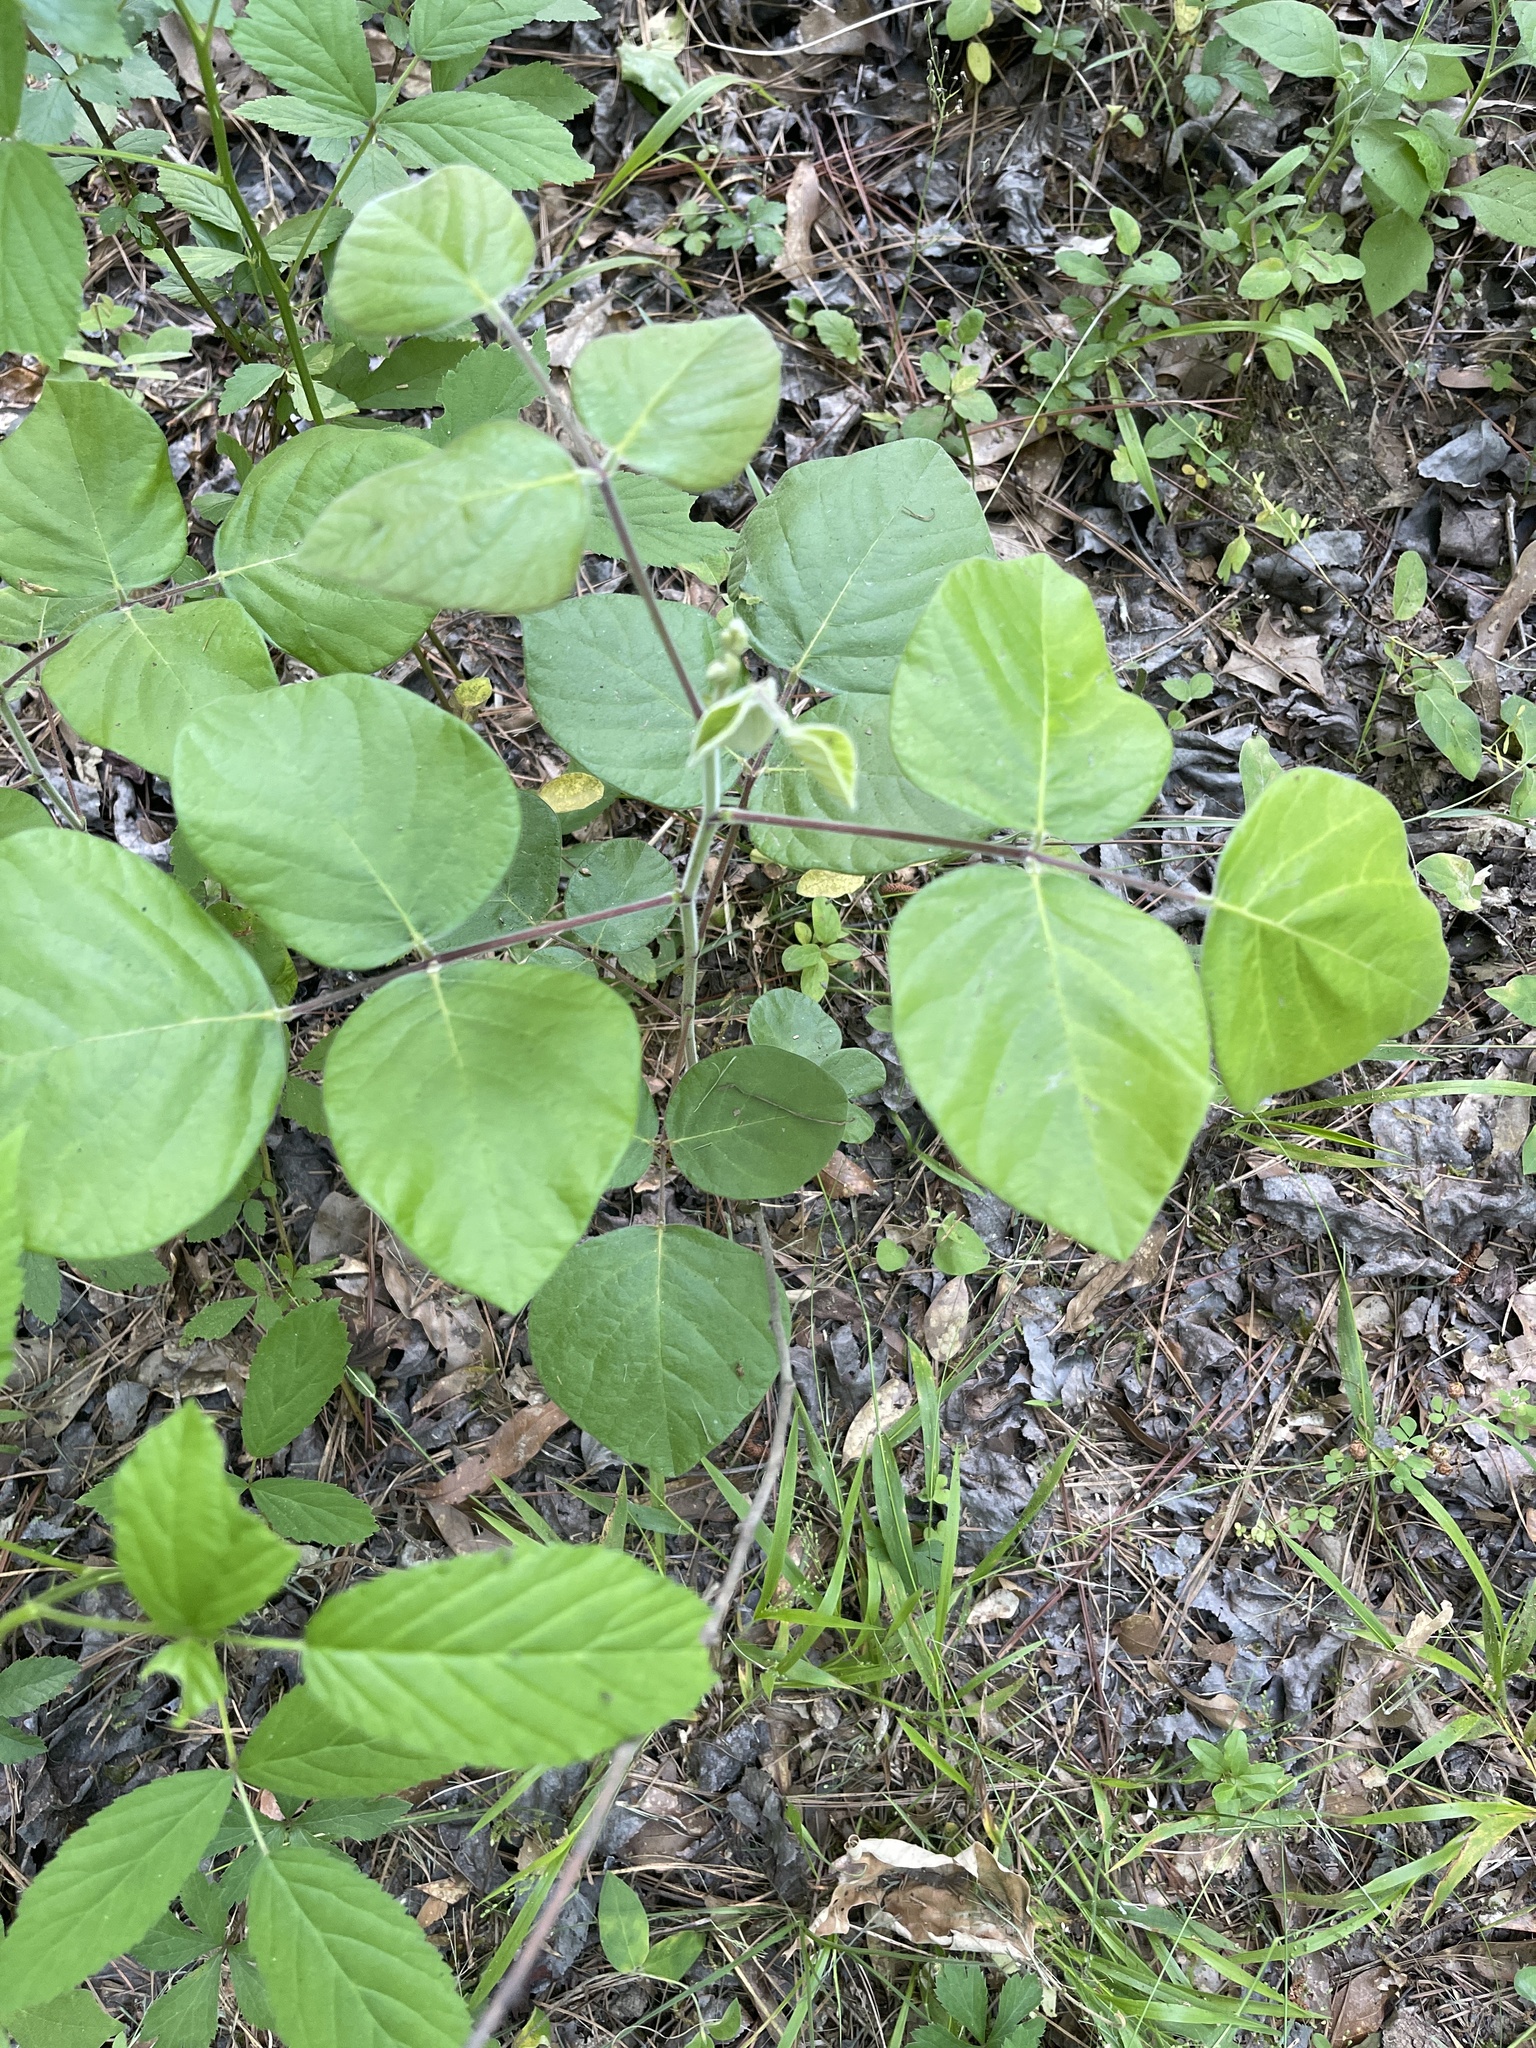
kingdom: Plantae
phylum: Tracheophyta
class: Magnoliopsida
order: Fabales
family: Fabaceae
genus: Desmodium
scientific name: Desmodium viridiflorum
